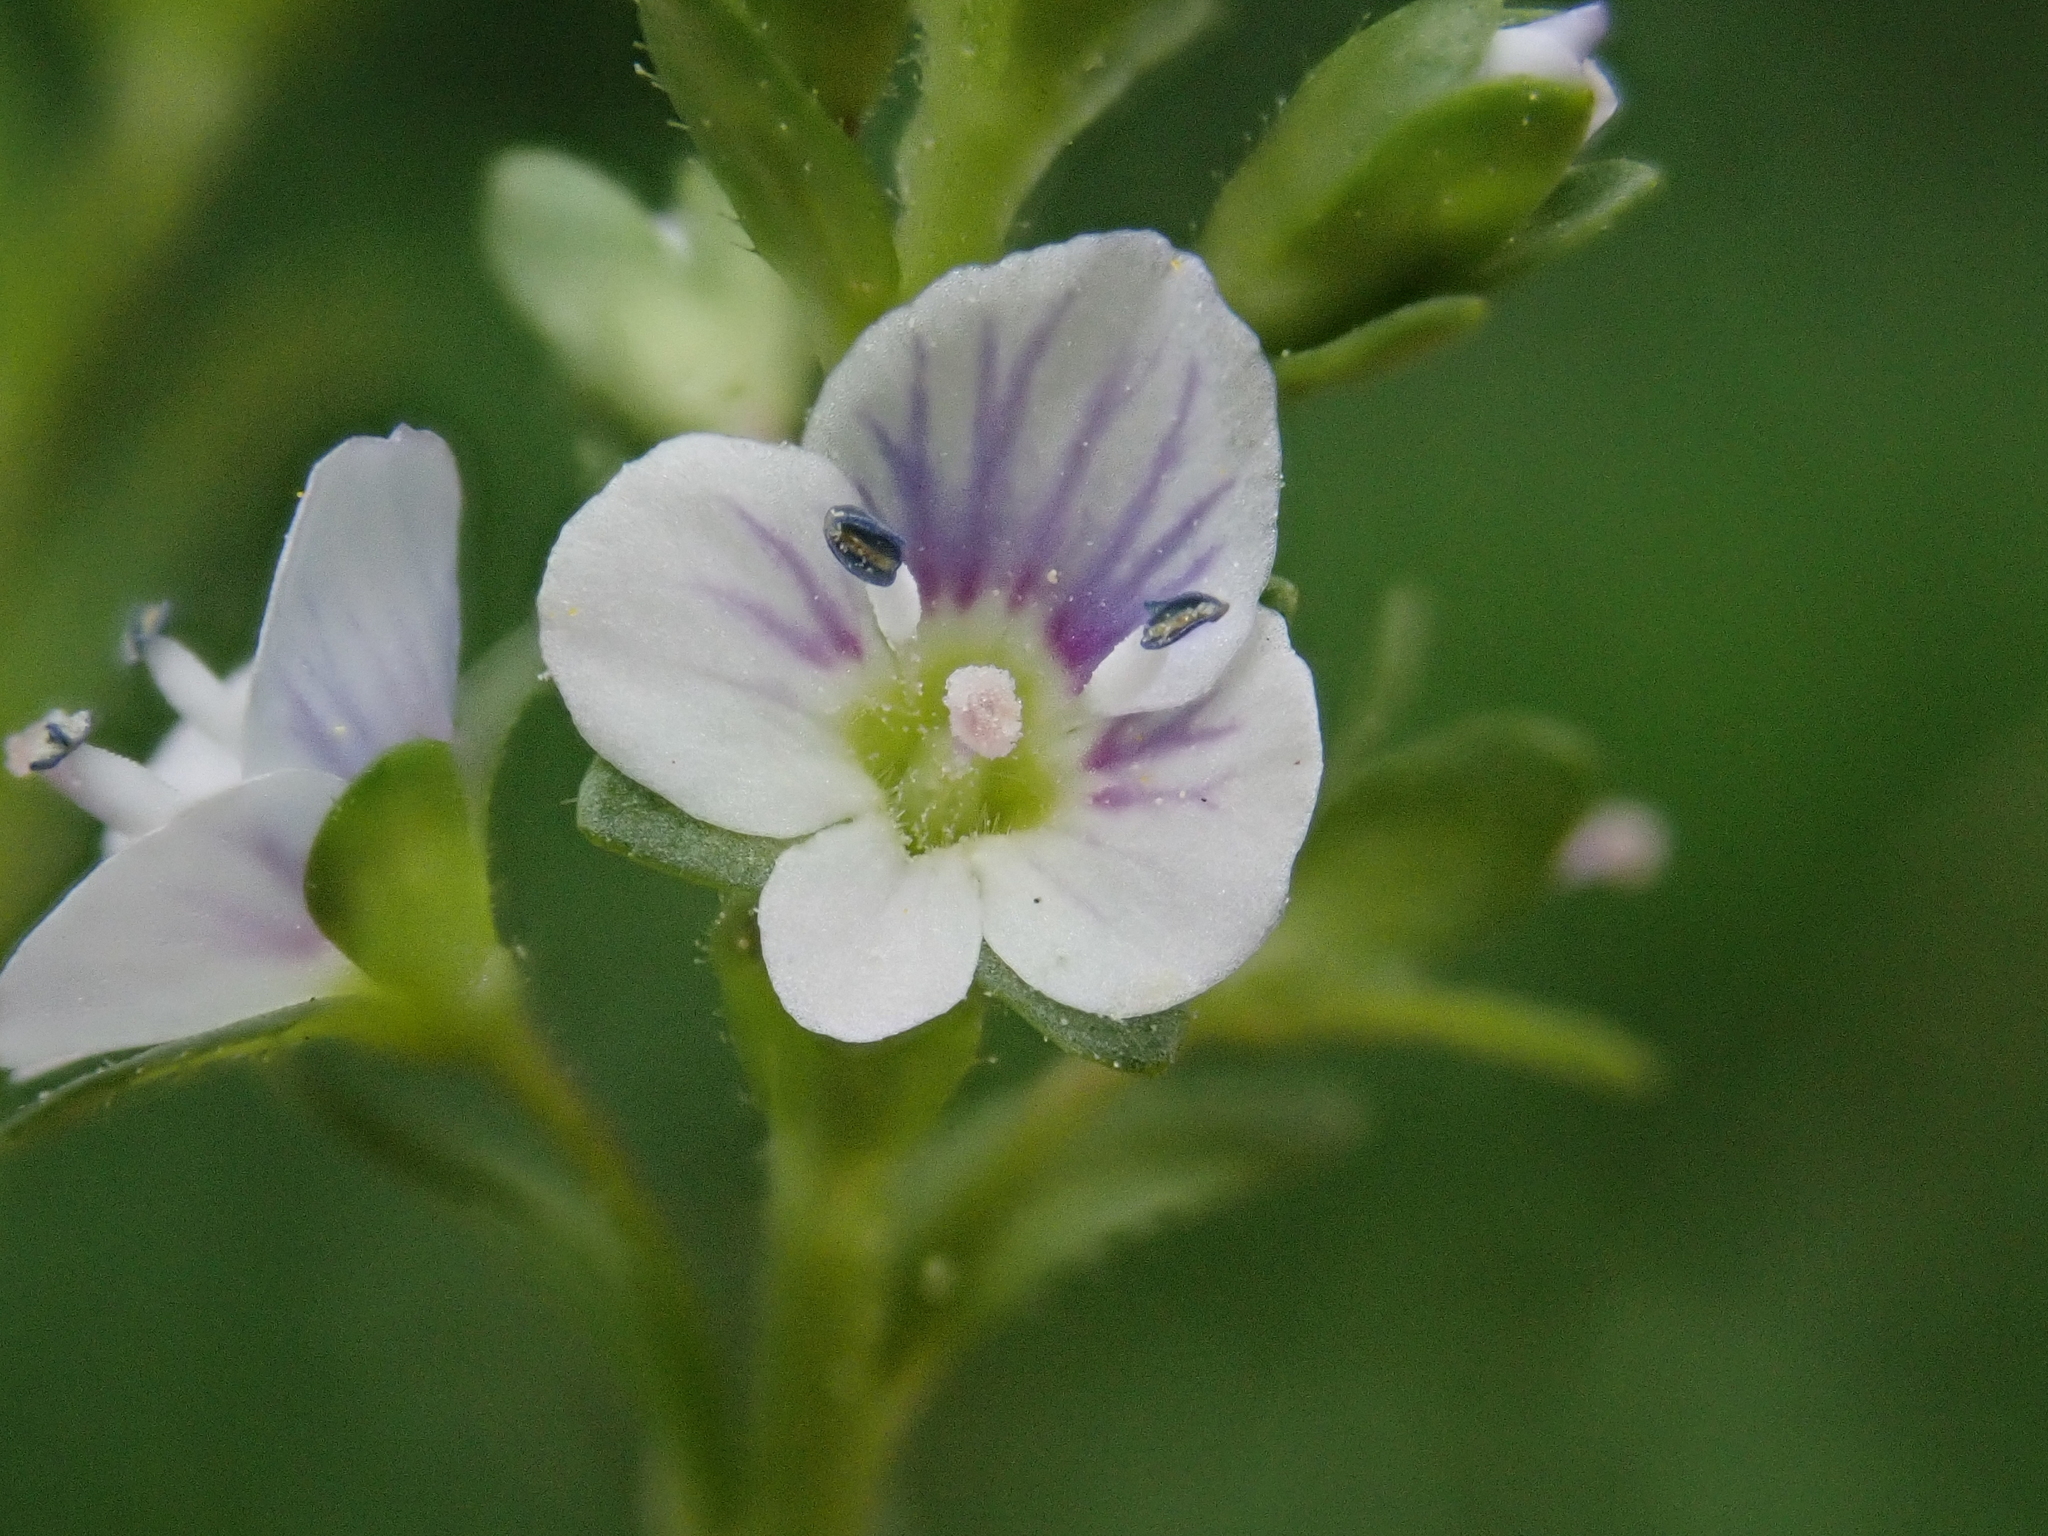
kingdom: Plantae
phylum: Tracheophyta
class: Magnoliopsida
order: Lamiales
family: Plantaginaceae
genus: Veronica
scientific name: Veronica serpyllifolia
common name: Thyme-leaved speedwell
